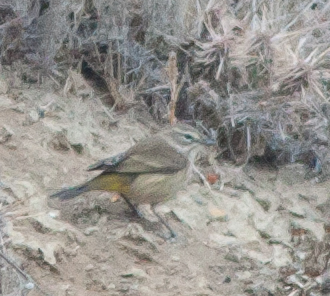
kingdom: Animalia
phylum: Chordata
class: Aves
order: Passeriformes
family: Parulidae
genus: Setophaga
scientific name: Setophaga palmarum
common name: Palm warbler
